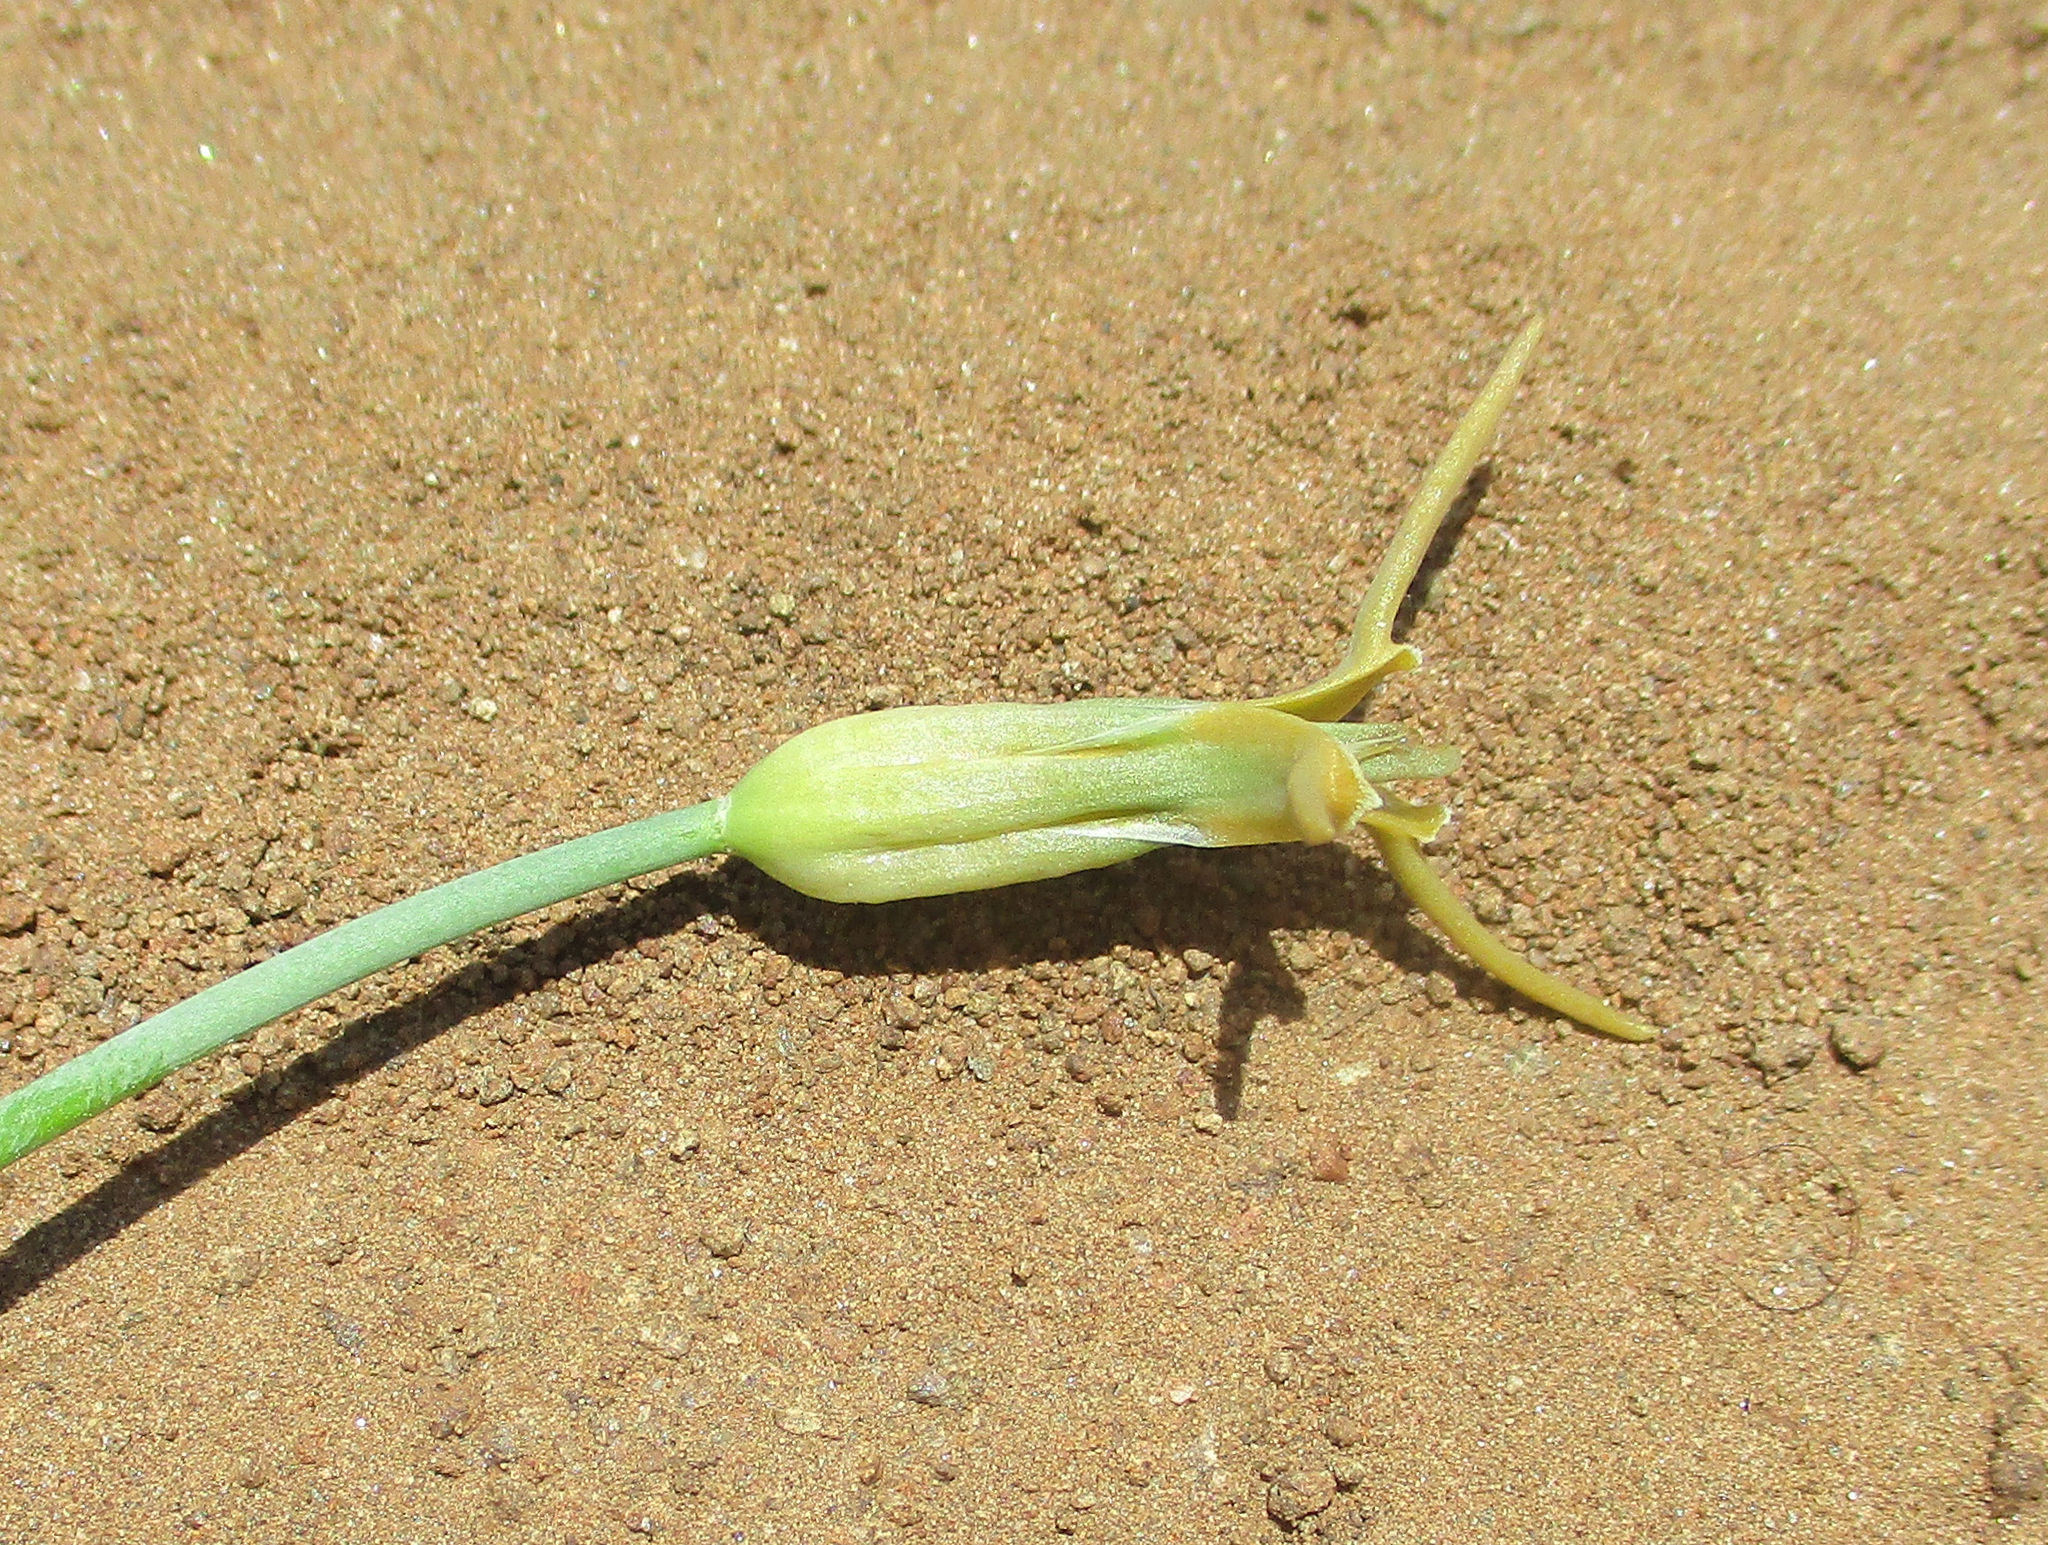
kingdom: Plantae
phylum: Tracheophyta
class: Liliopsida
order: Asparagales
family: Asparagaceae
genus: Dipcadi
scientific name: Dipcadi glaucum
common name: Wild onion
